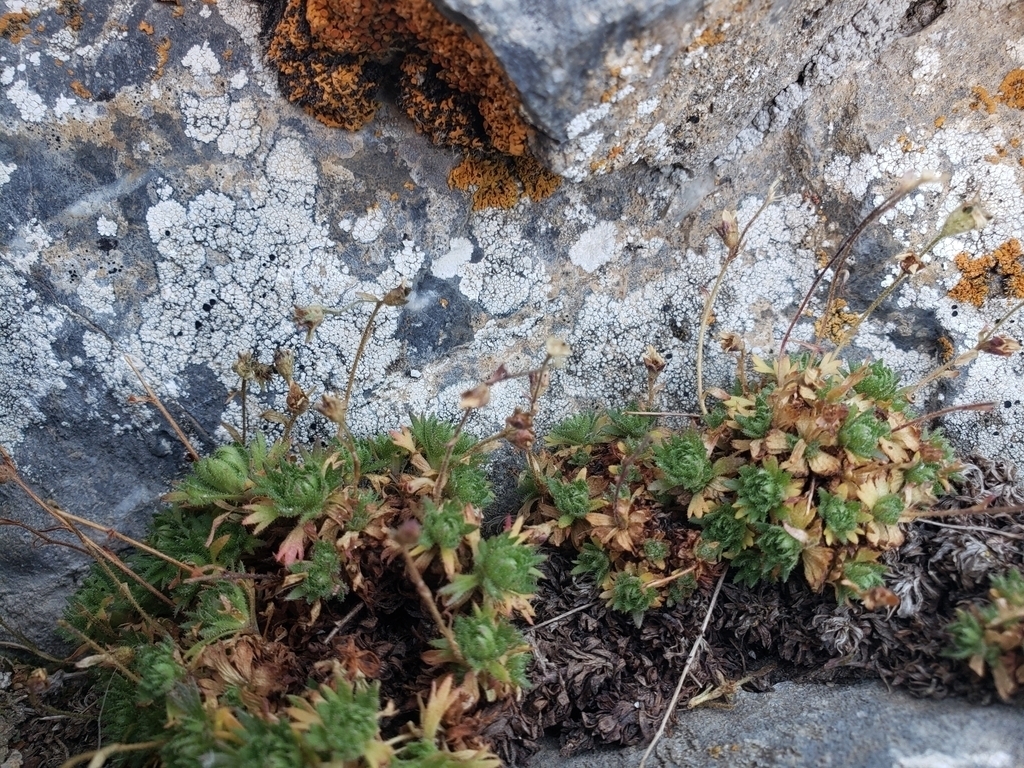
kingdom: Plantae
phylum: Tracheophyta
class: Magnoliopsida
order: Saxifragales
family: Saxifragaceae
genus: Saxifraga
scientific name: Saxifraga cespitosa
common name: Tufted saxifrage
